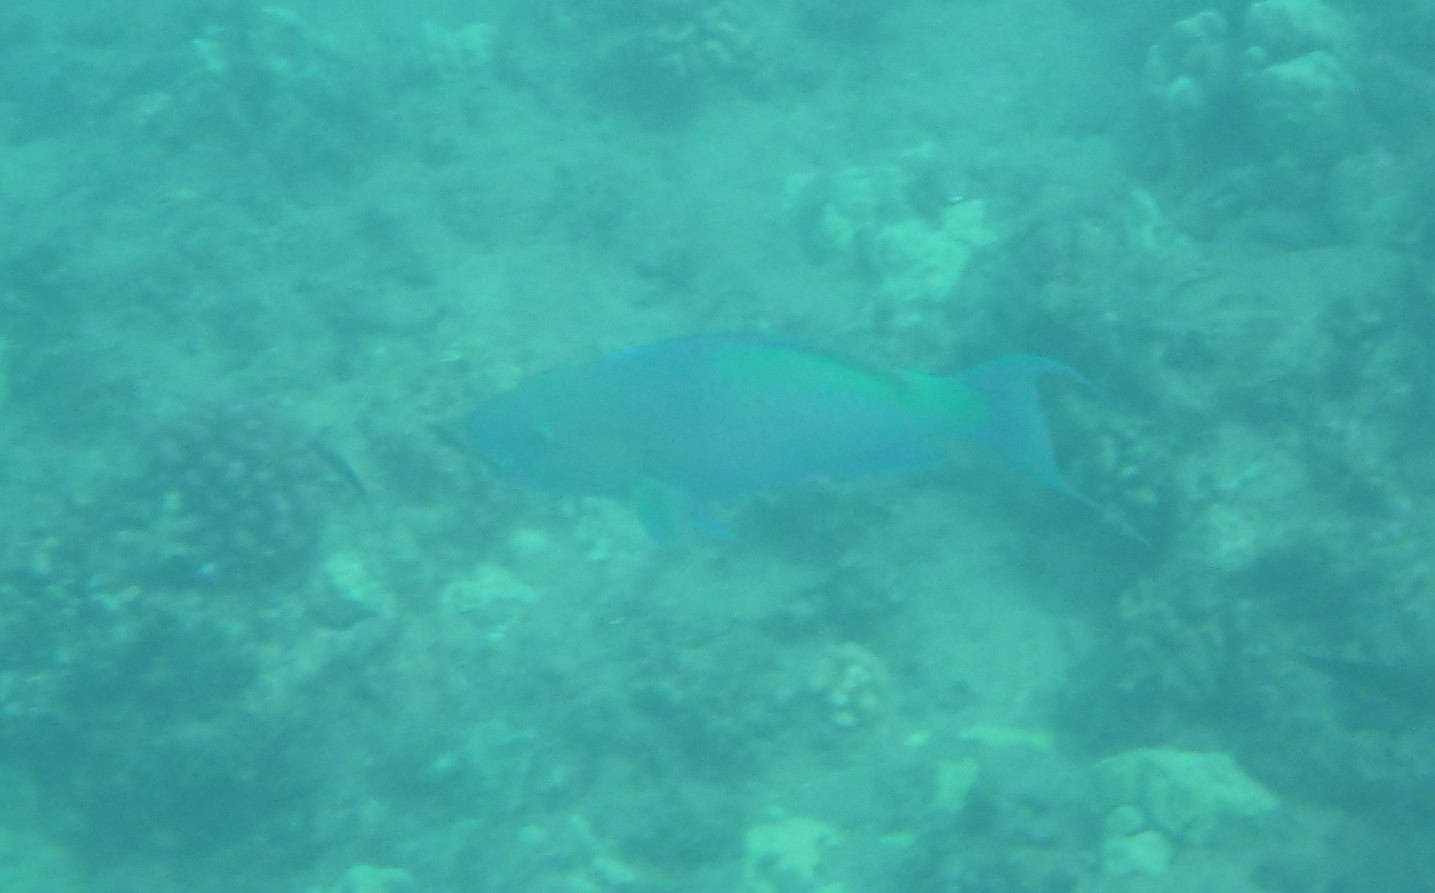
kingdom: Animalia
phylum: Chordata
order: Perciformes
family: Scaridae
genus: Scarus
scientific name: Scarus rubroviolaceus
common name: Ember parrotfish
